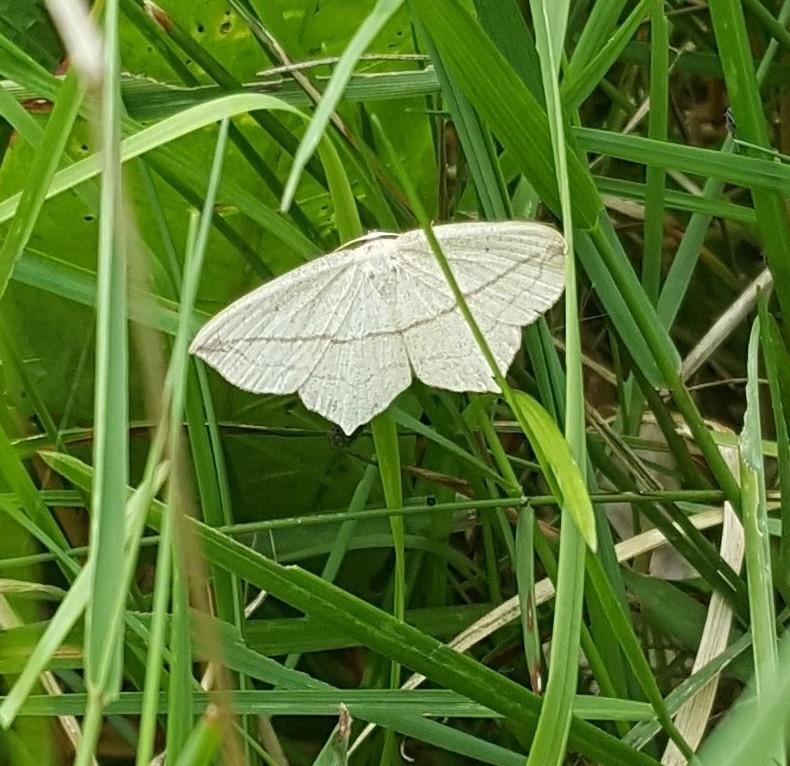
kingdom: Animalia
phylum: Arthropoda
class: Insecta
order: Lepidoptera
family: Geometridae
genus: Timandra
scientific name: Timandra comae
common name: Blood-vein
